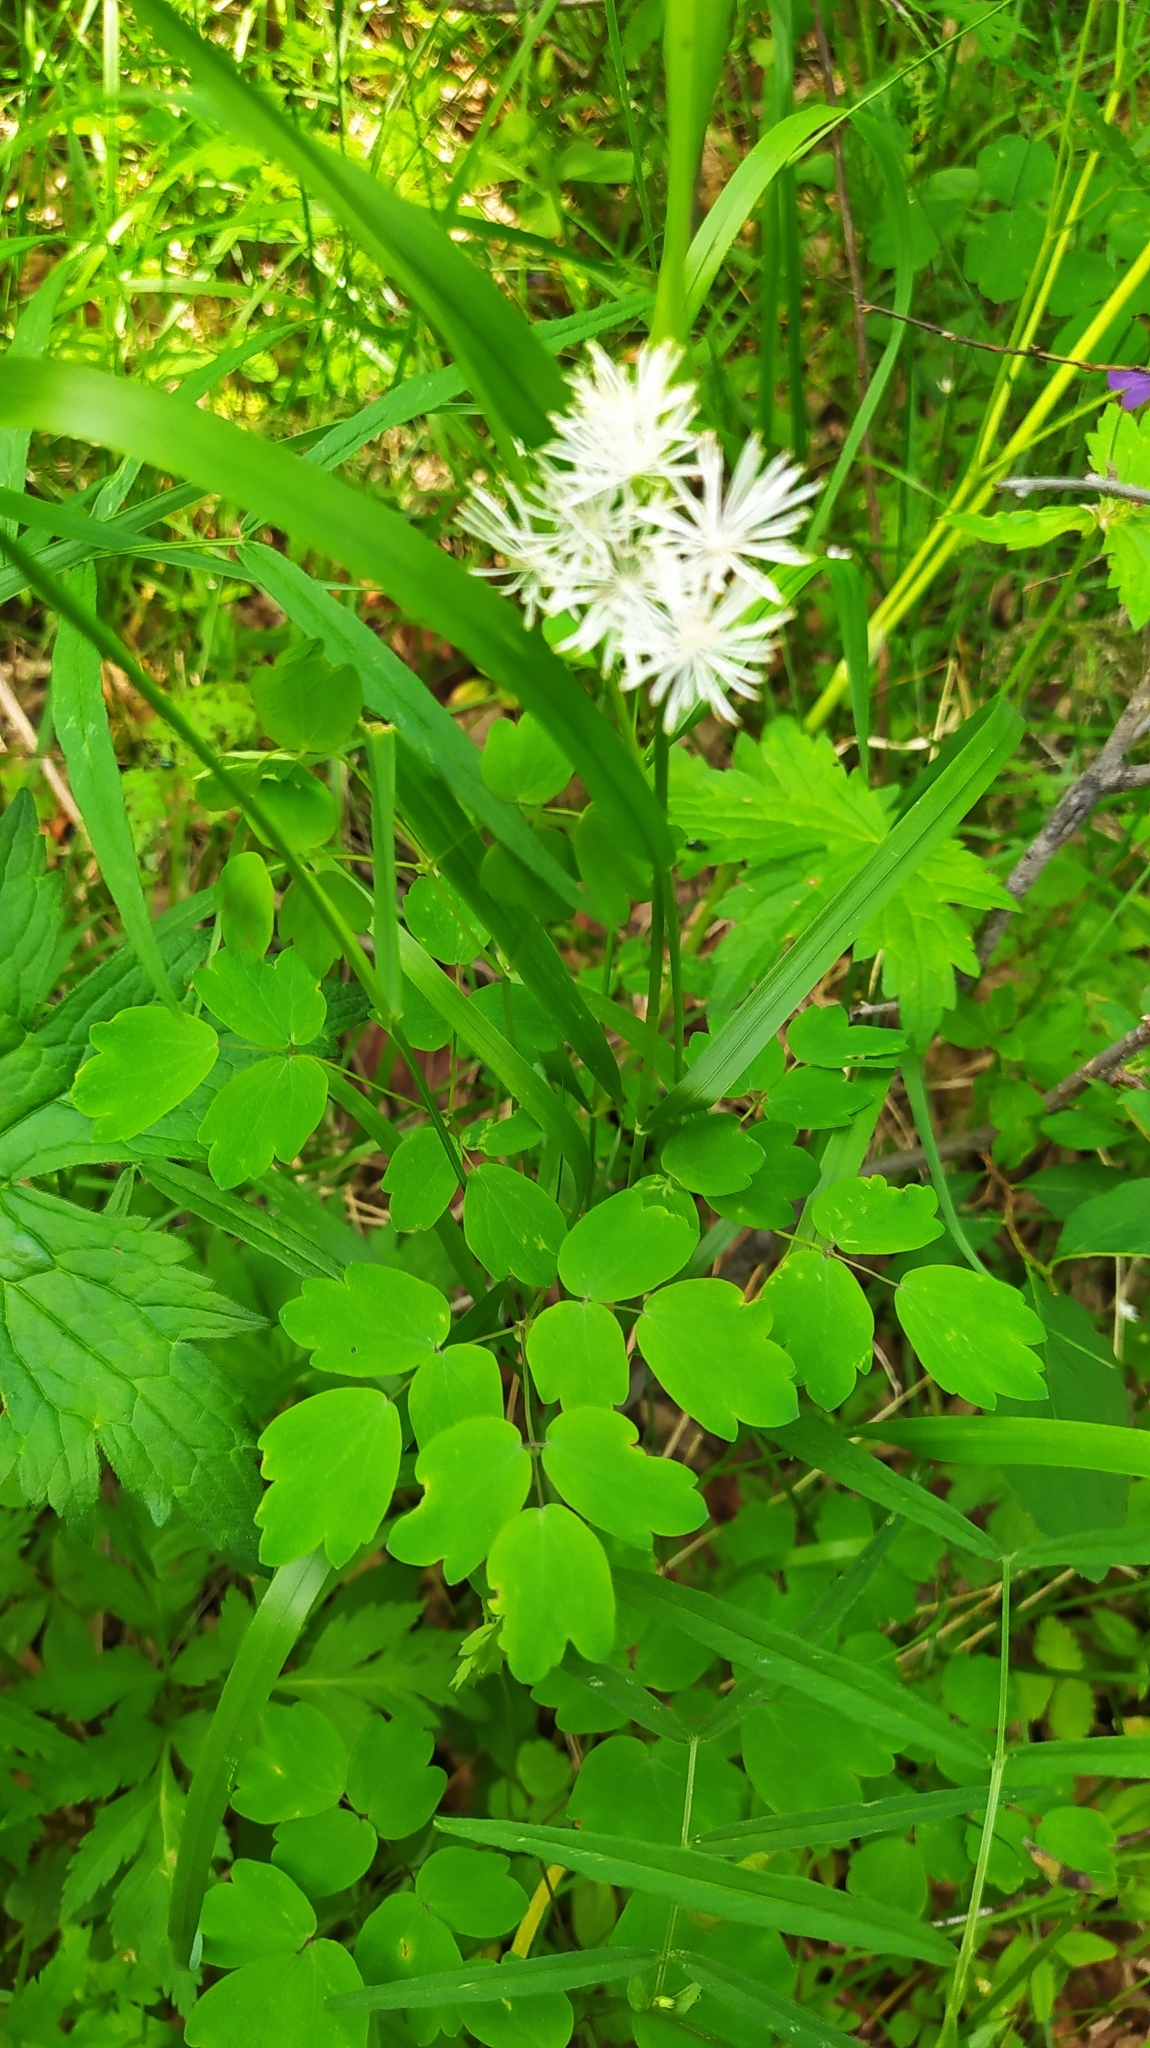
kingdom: Plantae
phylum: Tracheophyta
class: Magnoliopsida
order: Ranunculales
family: Ranunculaceae
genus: Thalictrum
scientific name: Thalictrum petaloideum
